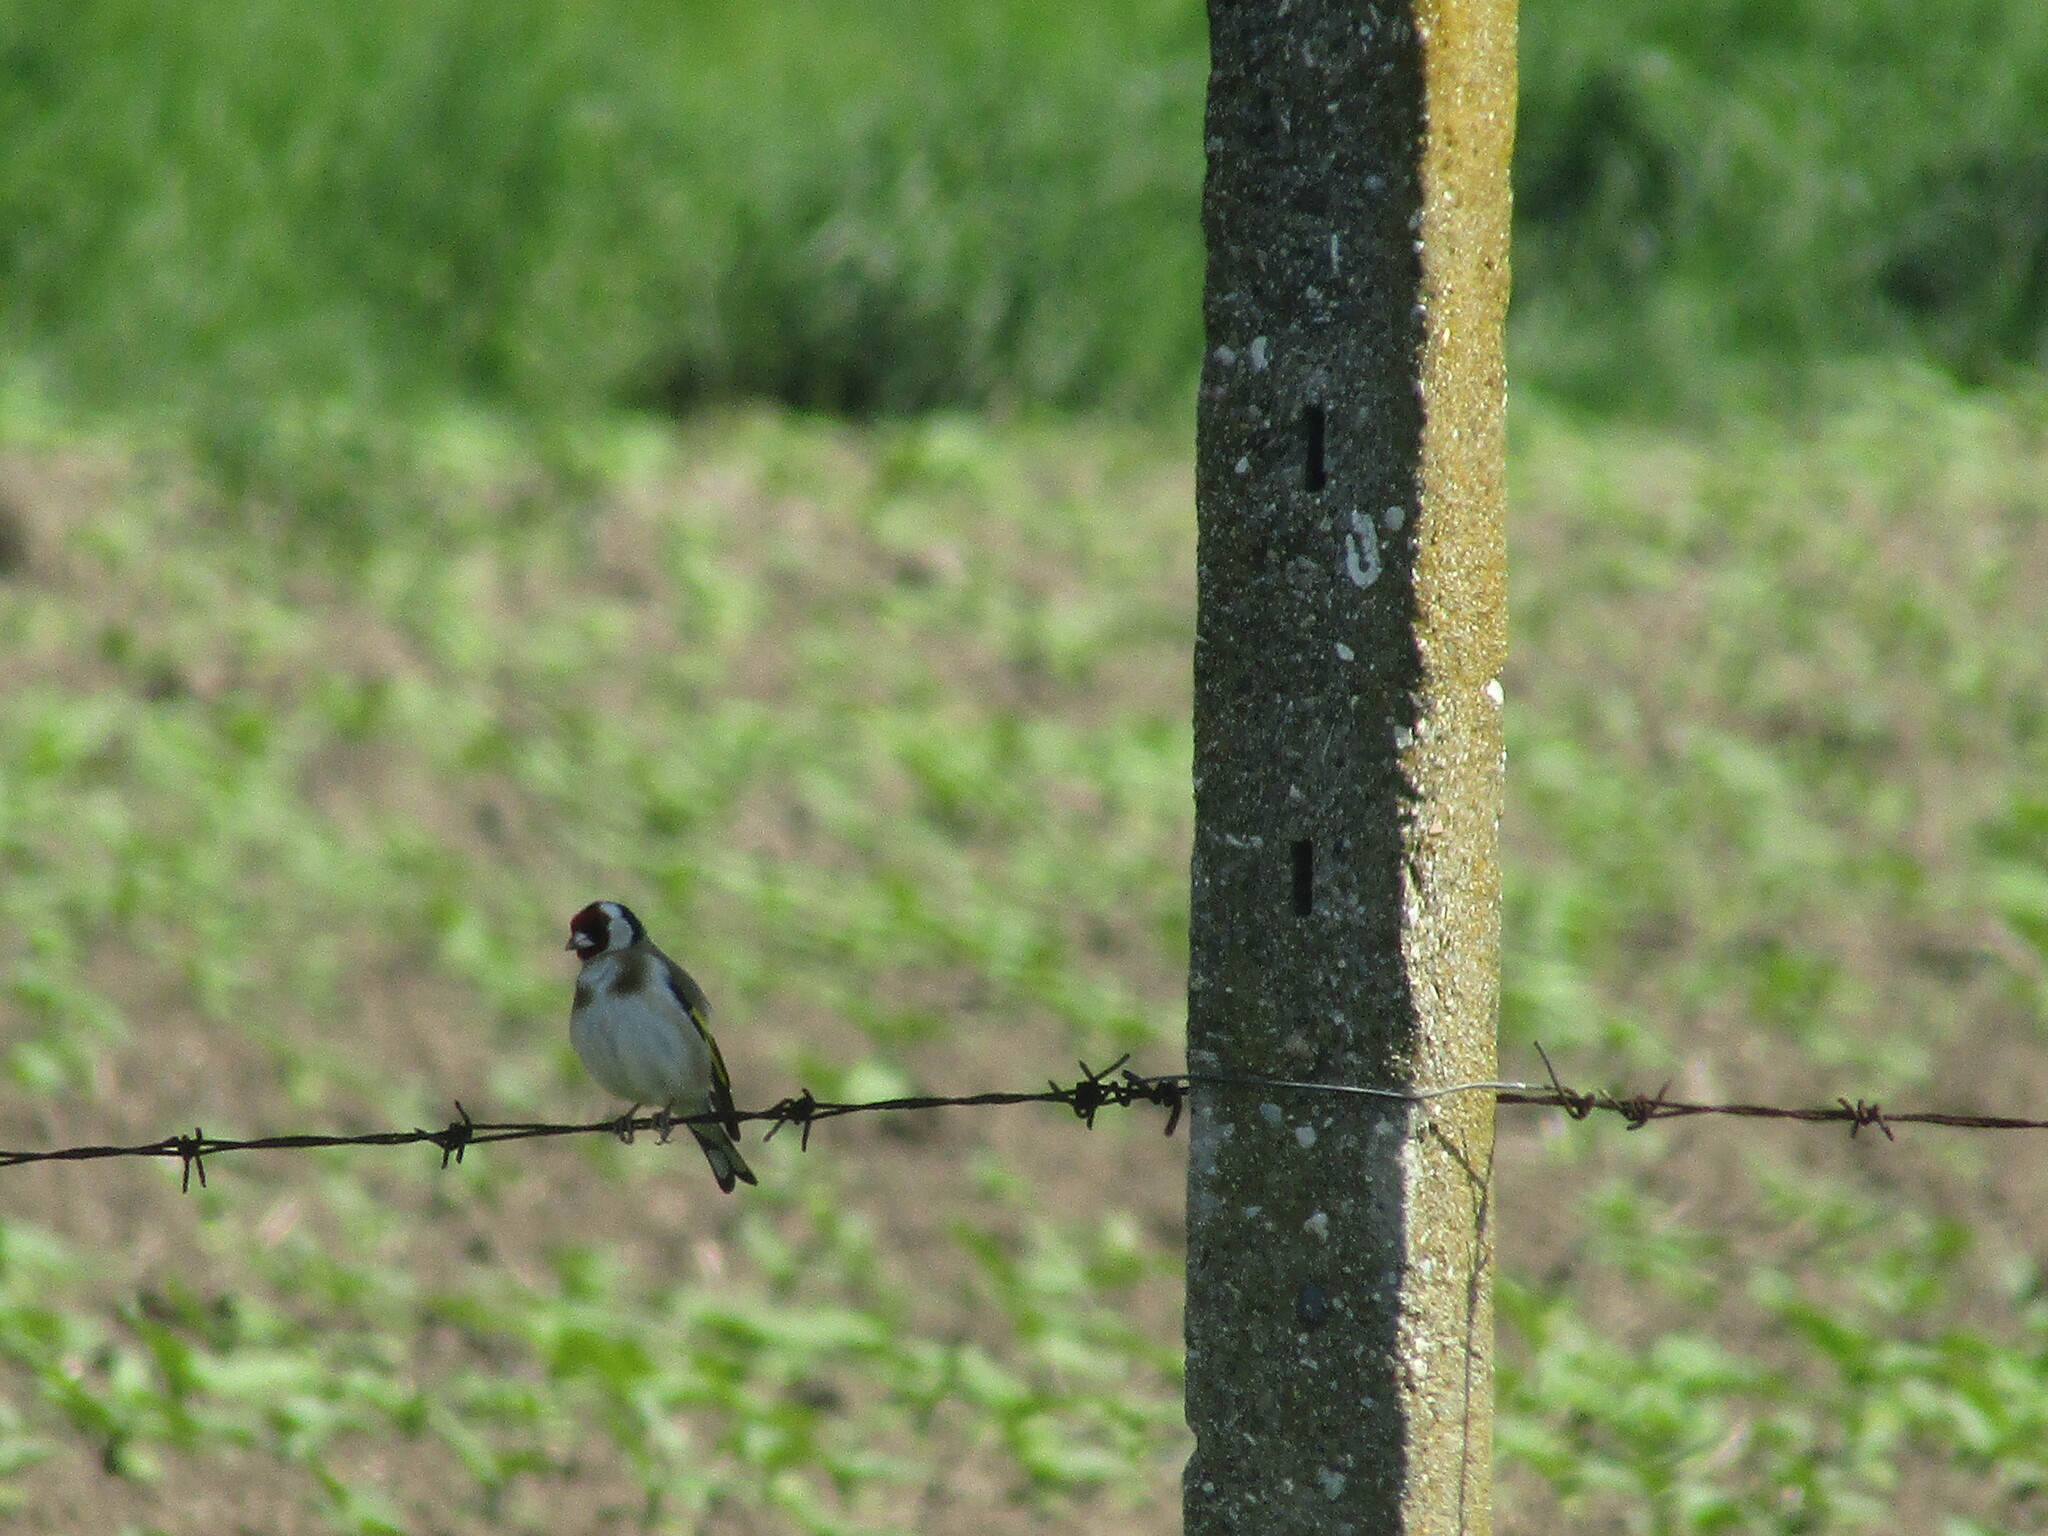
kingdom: Animalia
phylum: Chordata
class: Aves
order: Passeriformes
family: Fringillidae
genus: Carduelis
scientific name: Carduelis carduelis
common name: European goldfinch
